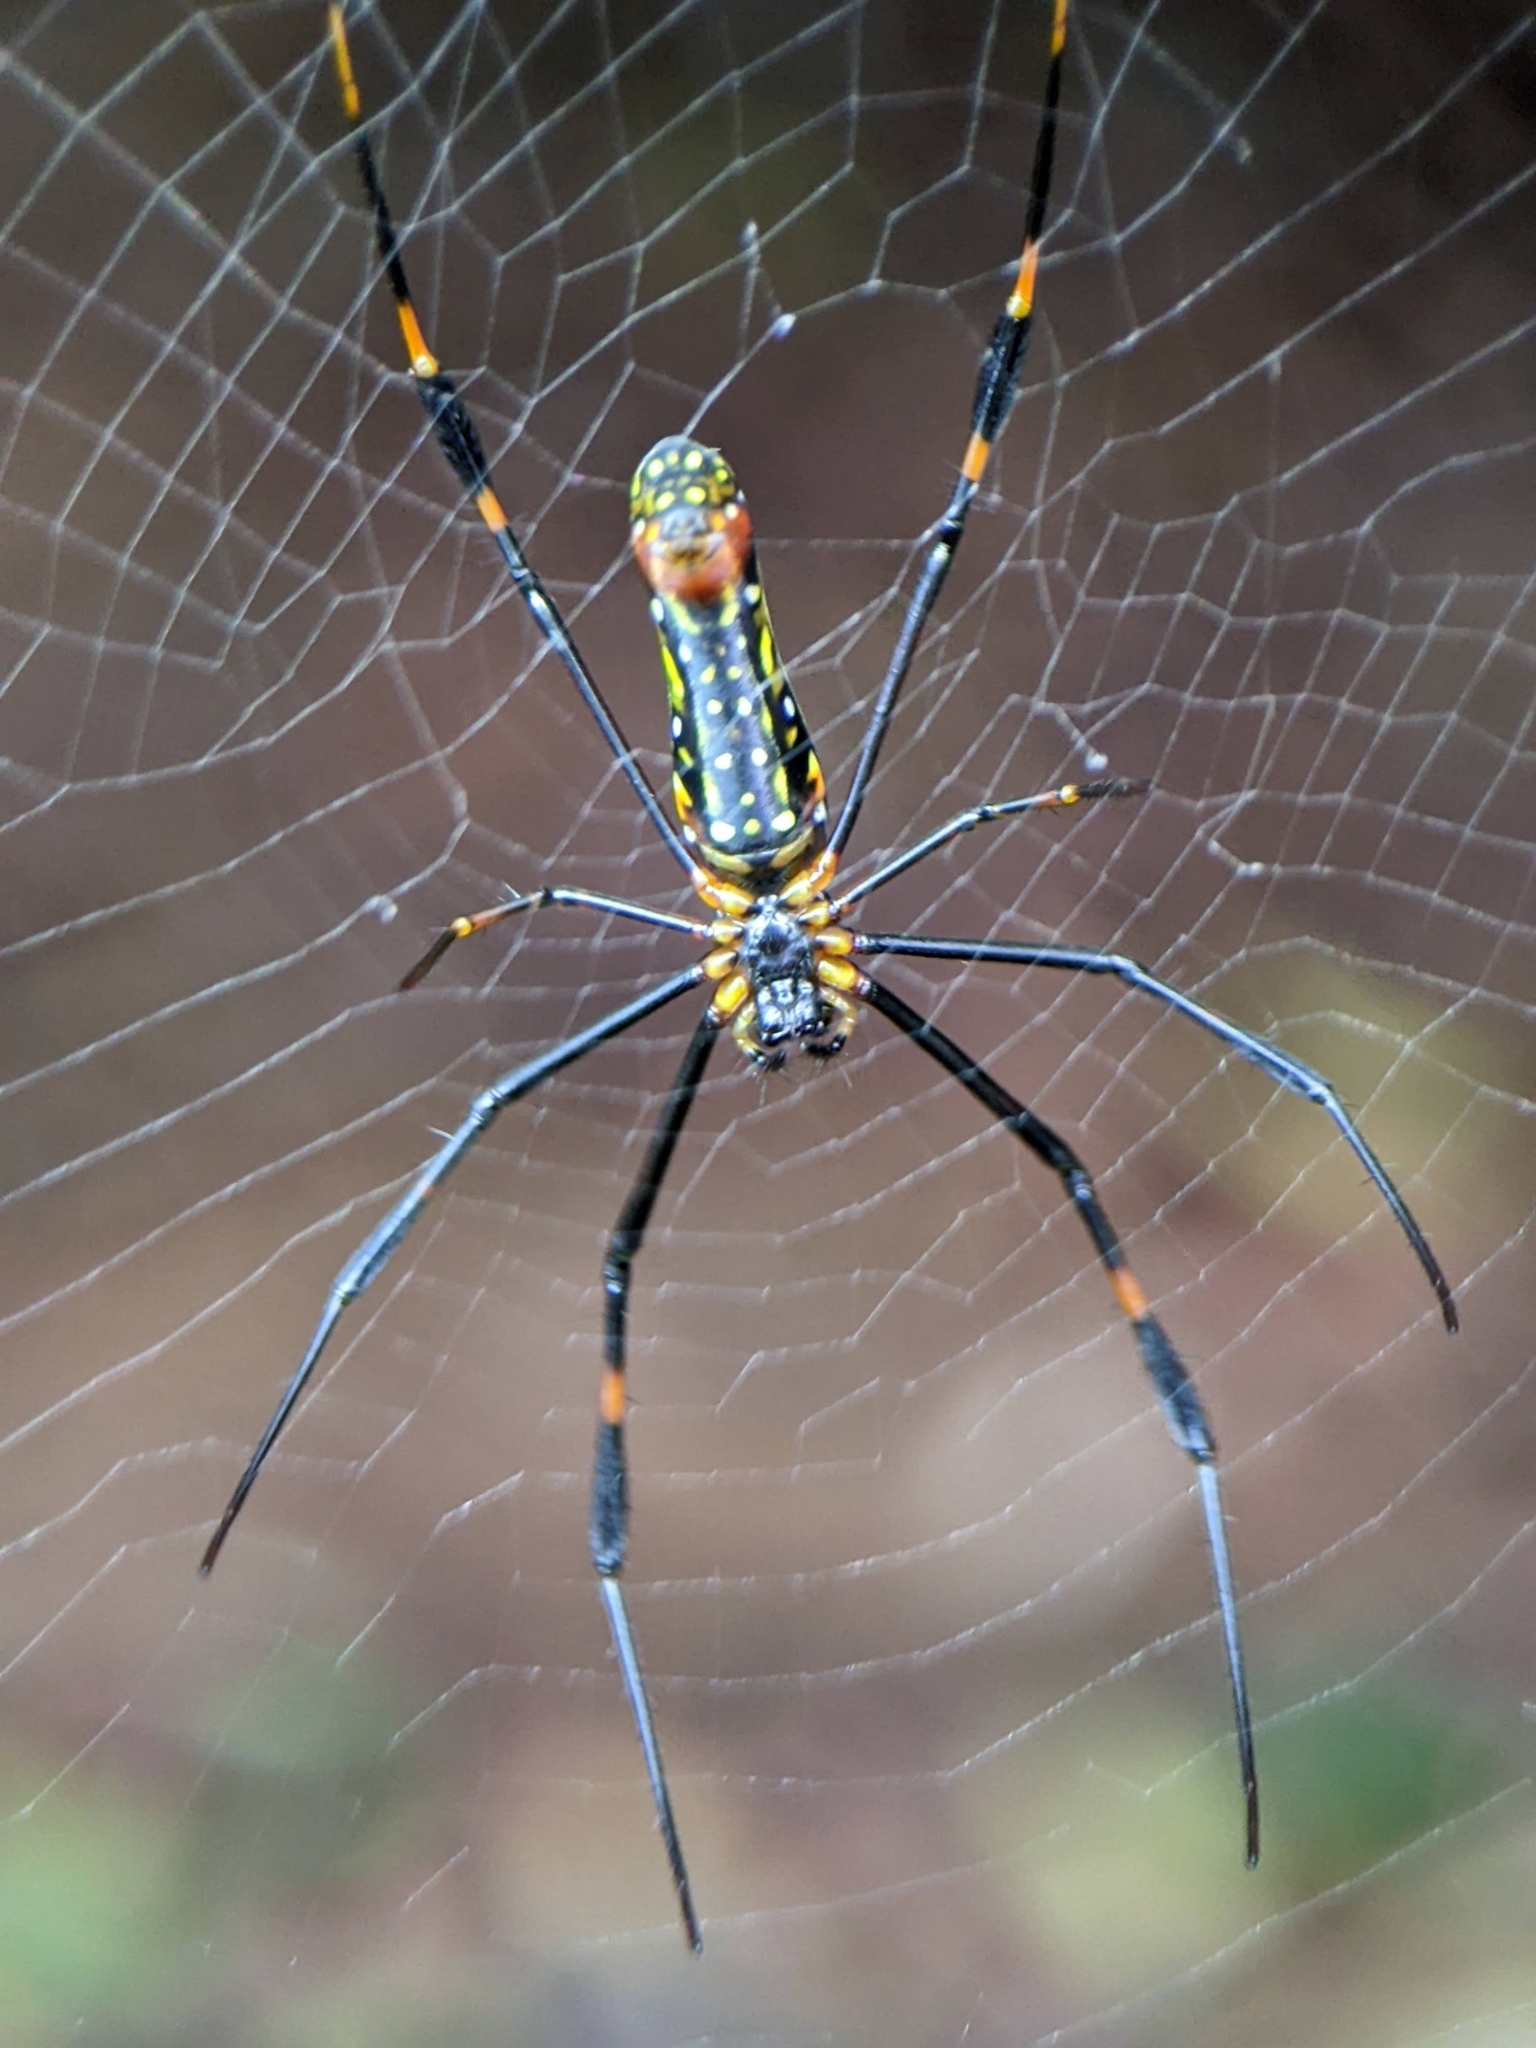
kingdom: Animalia
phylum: Arthropoda
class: Arachnida
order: Araneae
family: Araneidae
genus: Nephila
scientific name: Nephila pilipes
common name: Giant golden orb weaver
